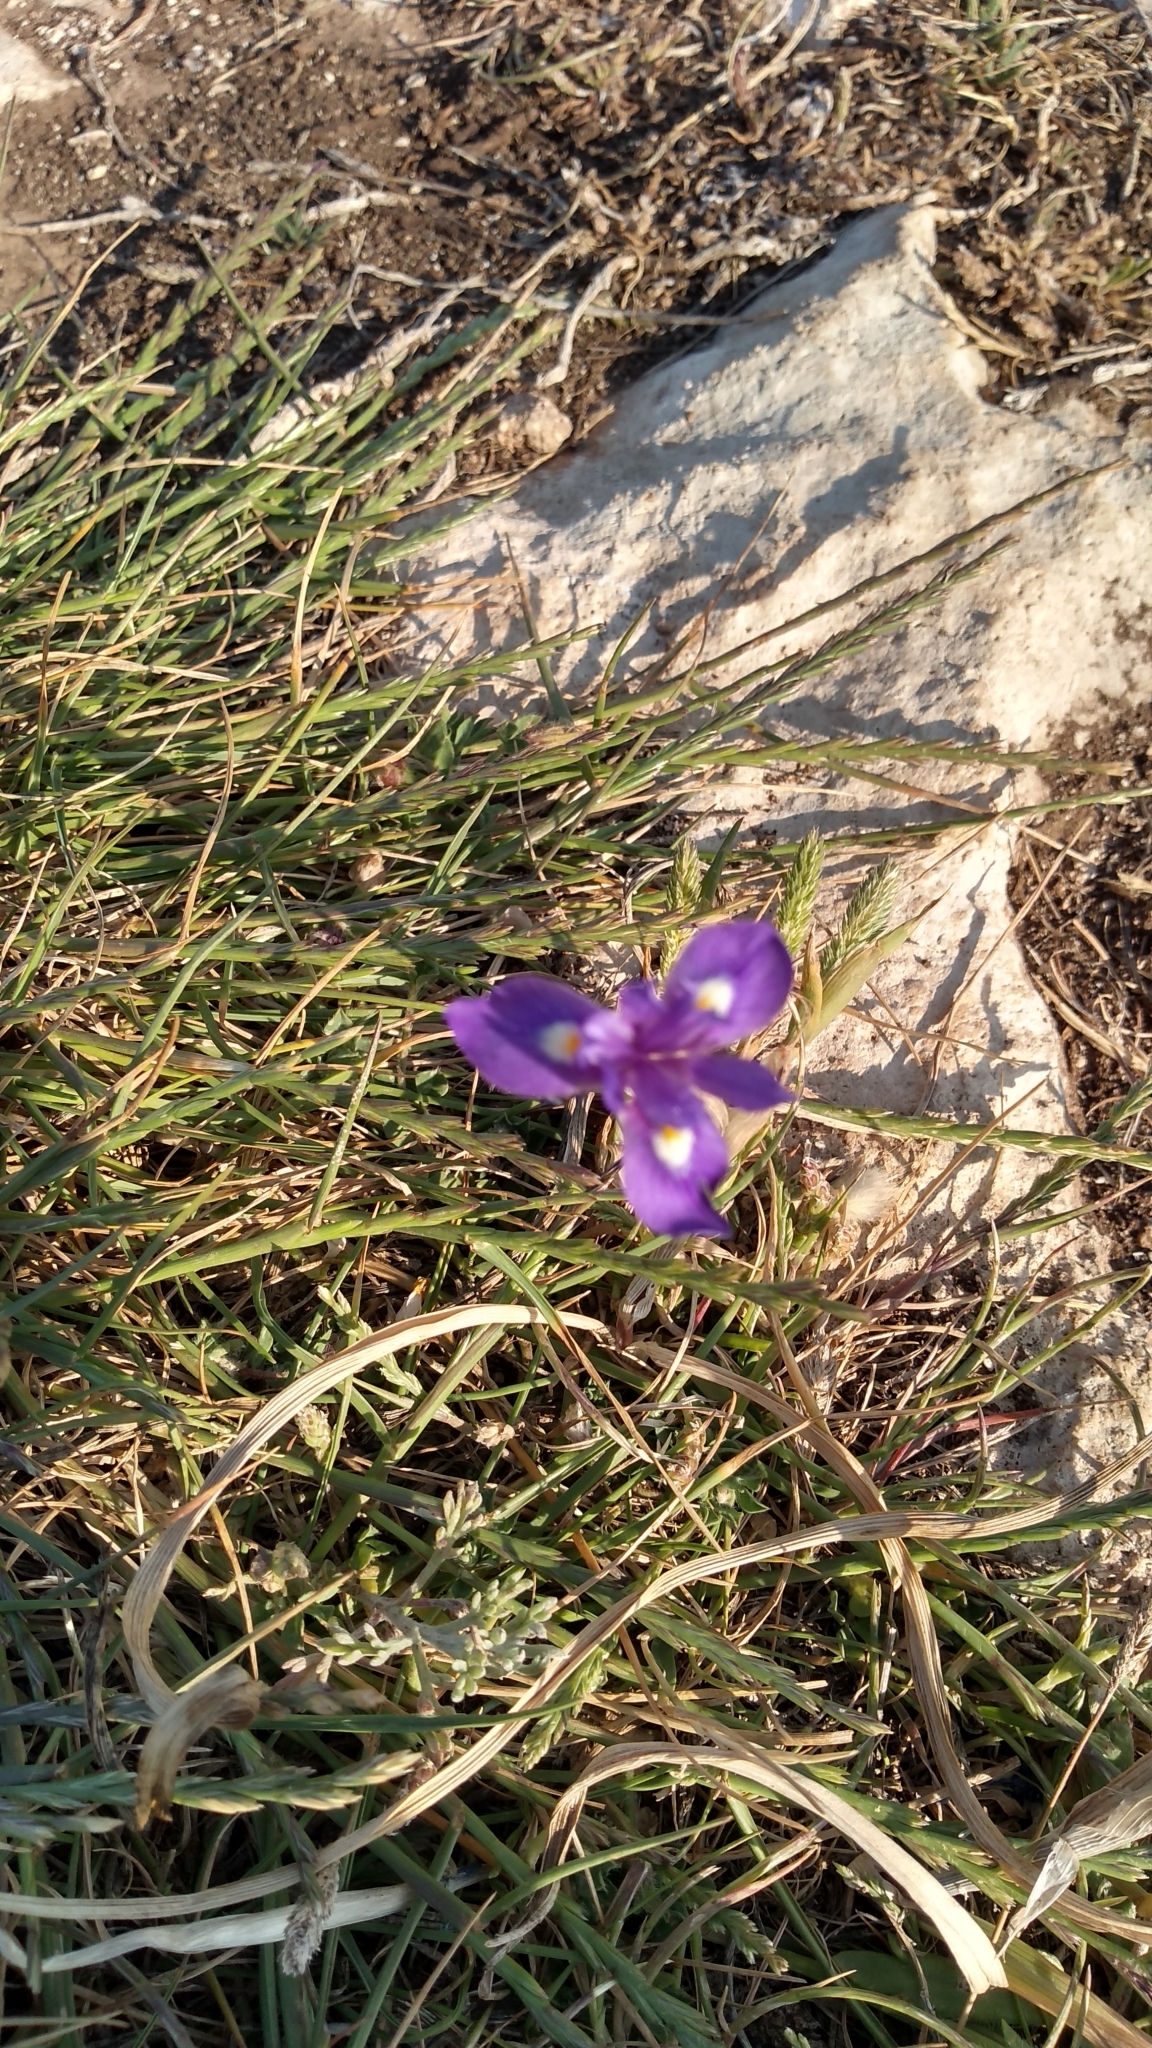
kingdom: Plantae
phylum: Tracheophyta
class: Liliopsida
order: Asparagales
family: Iridaceae
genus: Moraea
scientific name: Moraea sisyrinchium
